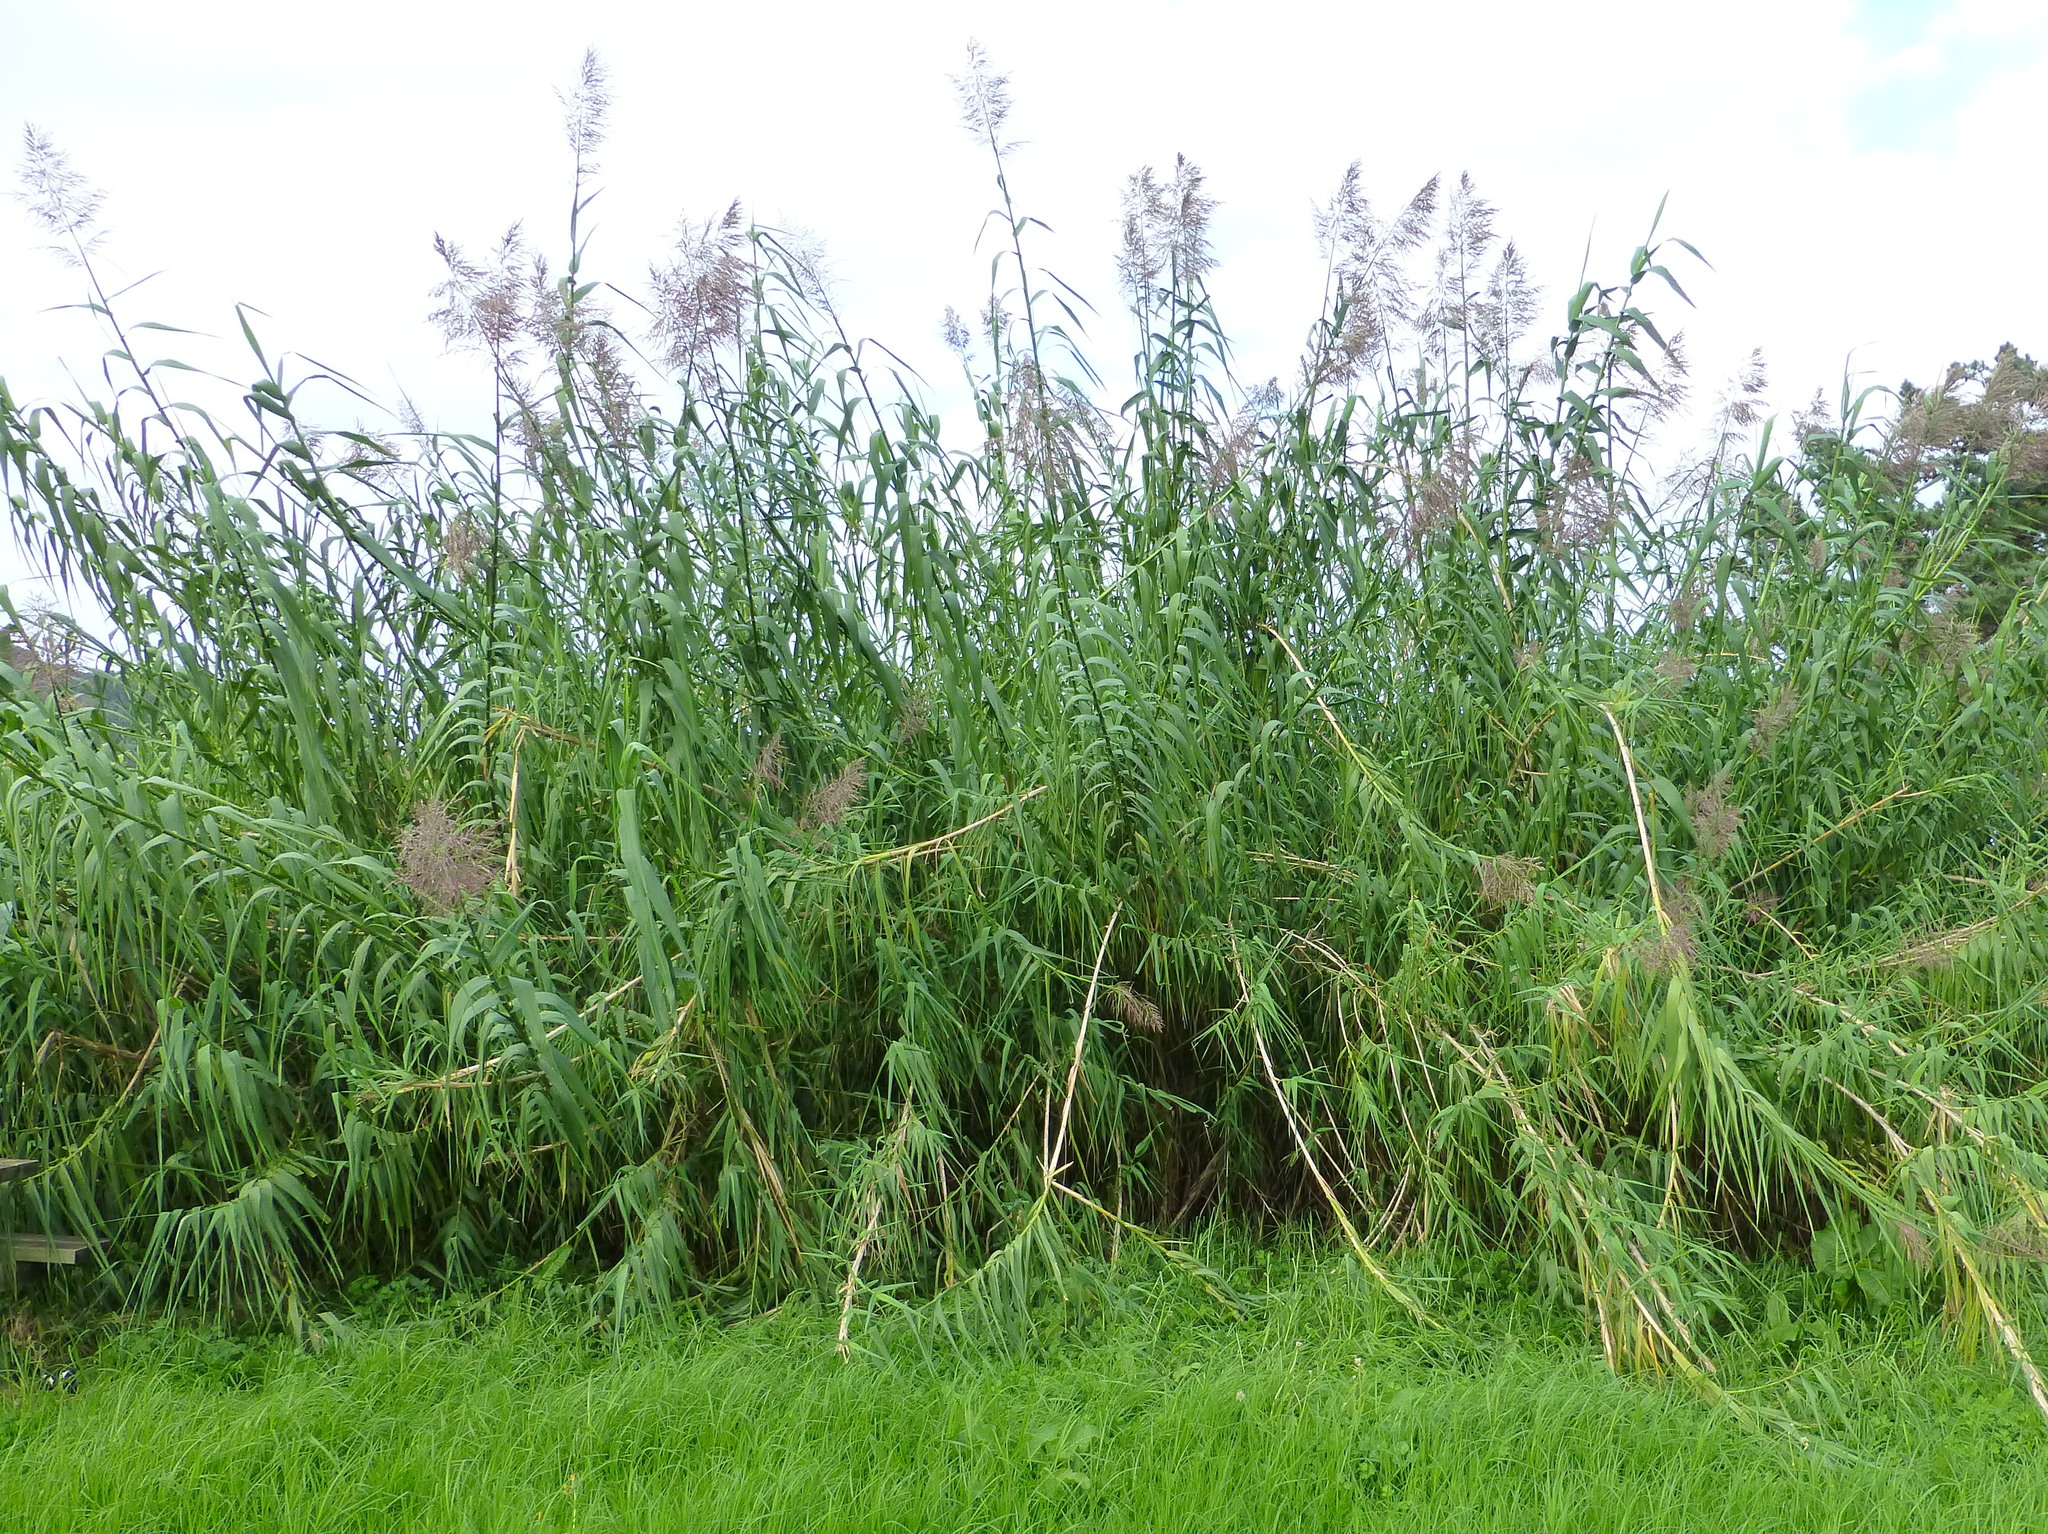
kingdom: Plantae
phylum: Tracheophyta
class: Liliopsida
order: Poales
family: Poaceae
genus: Arundo
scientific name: Arundo donax
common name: Giant reed
